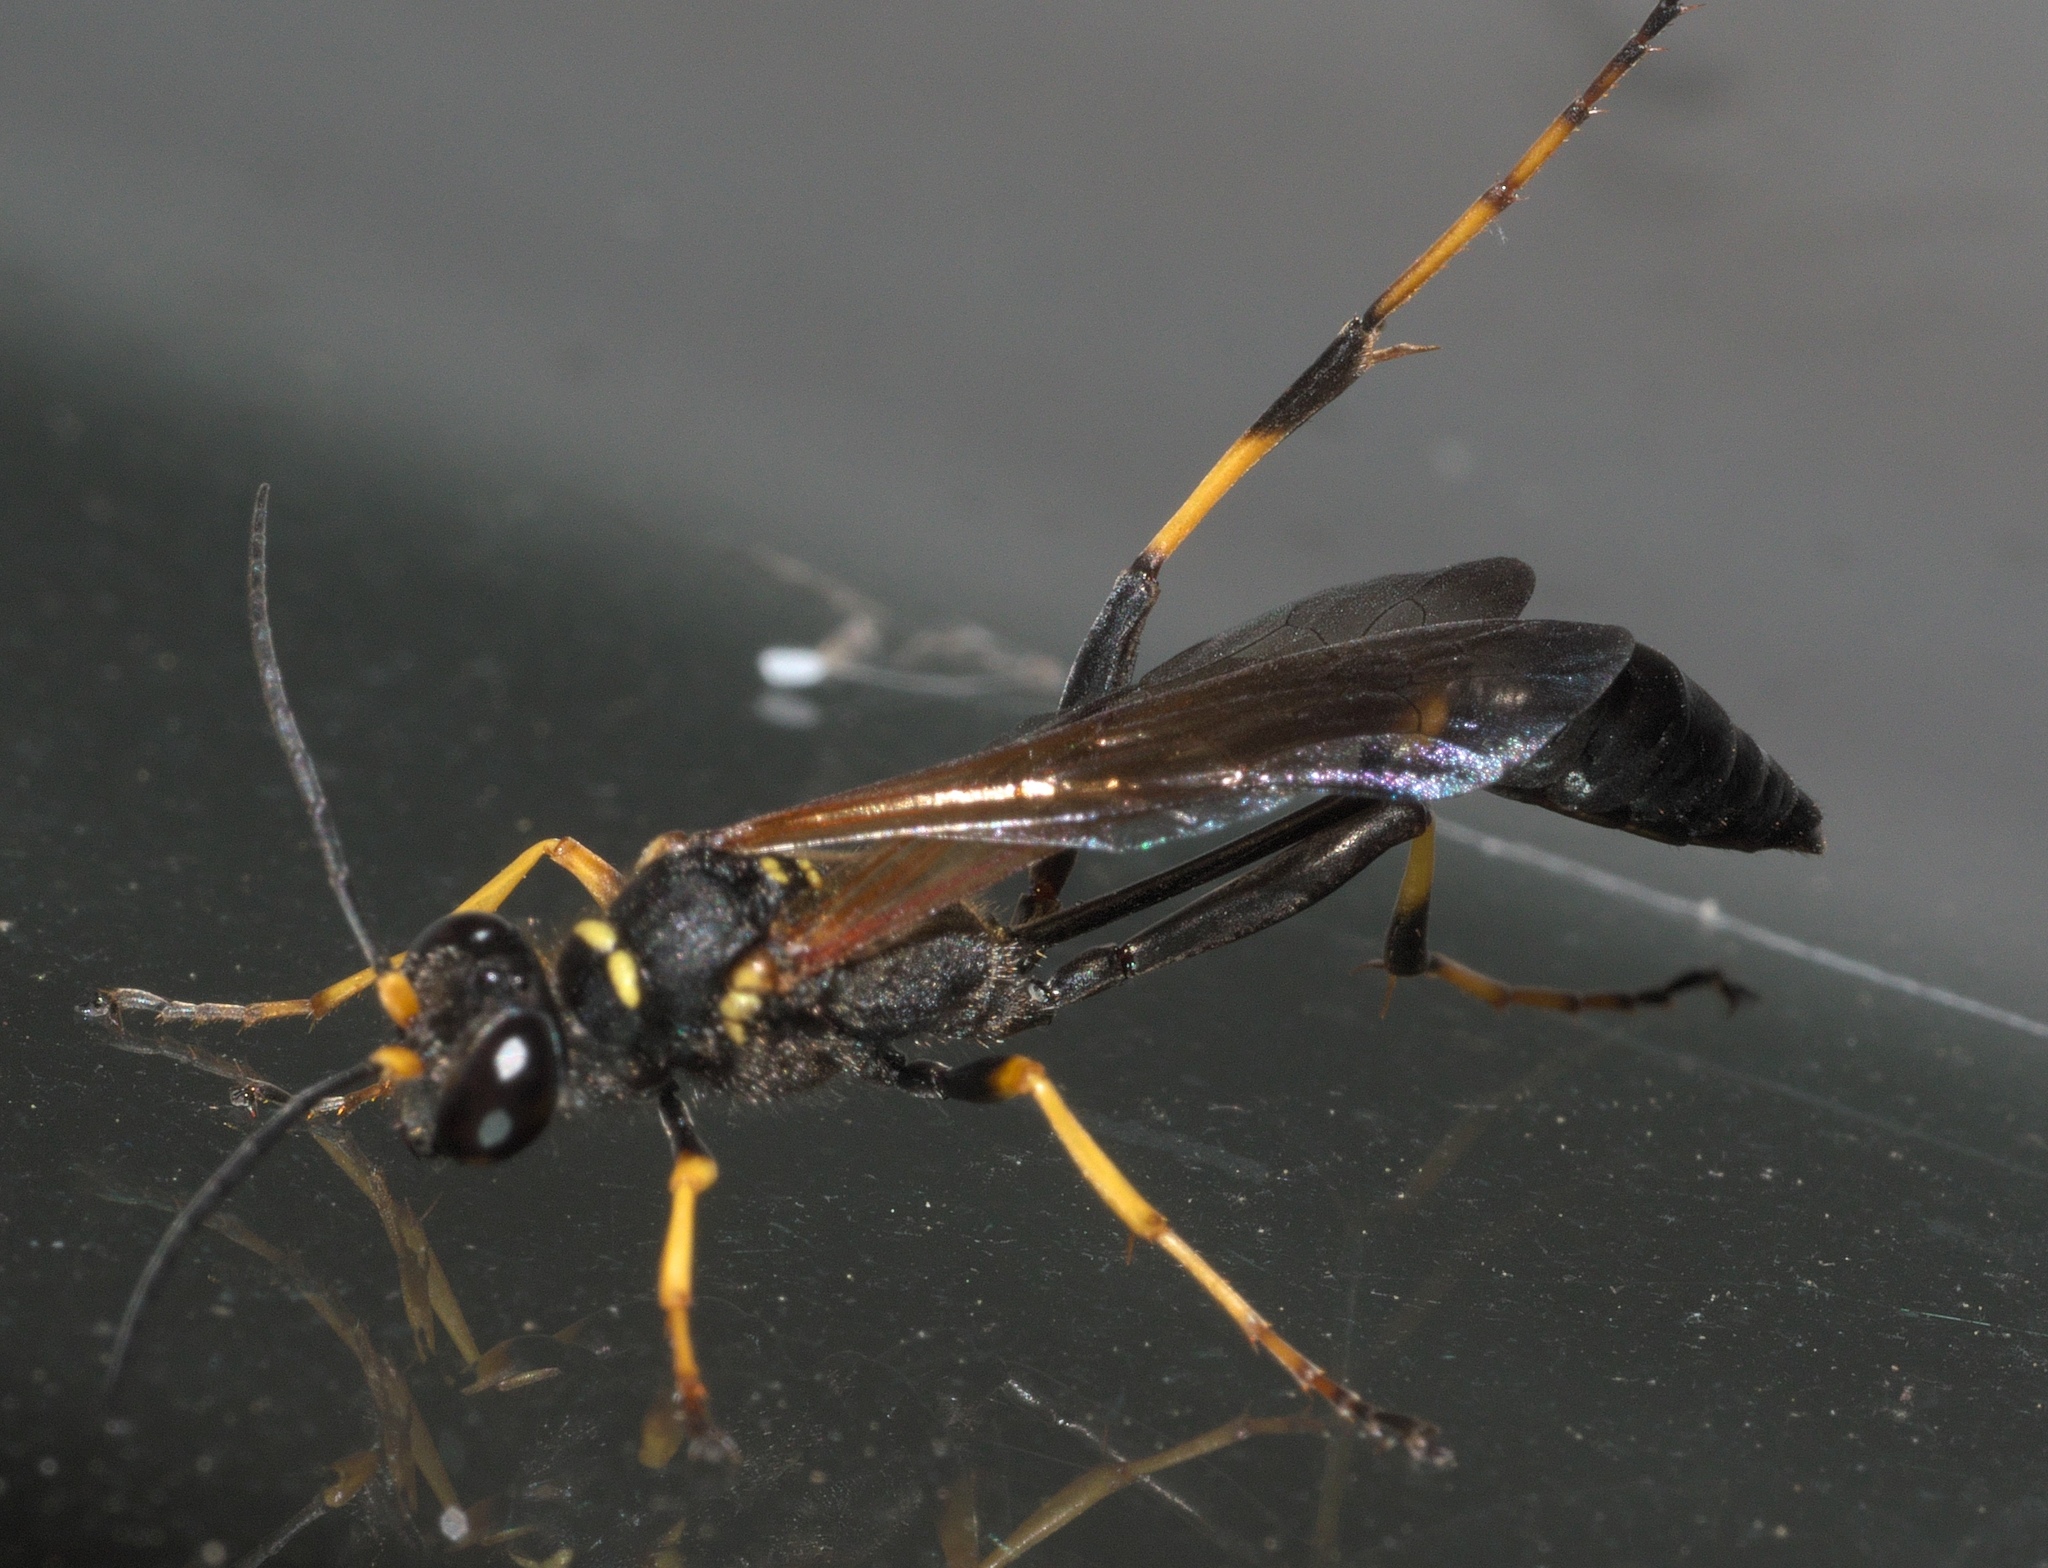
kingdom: Animalia
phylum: Arthropoda
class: Insecta
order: Hymenoptera
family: Sphecidae
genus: Sceliphron
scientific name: Sceliphron caementarium
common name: Mud dauber
